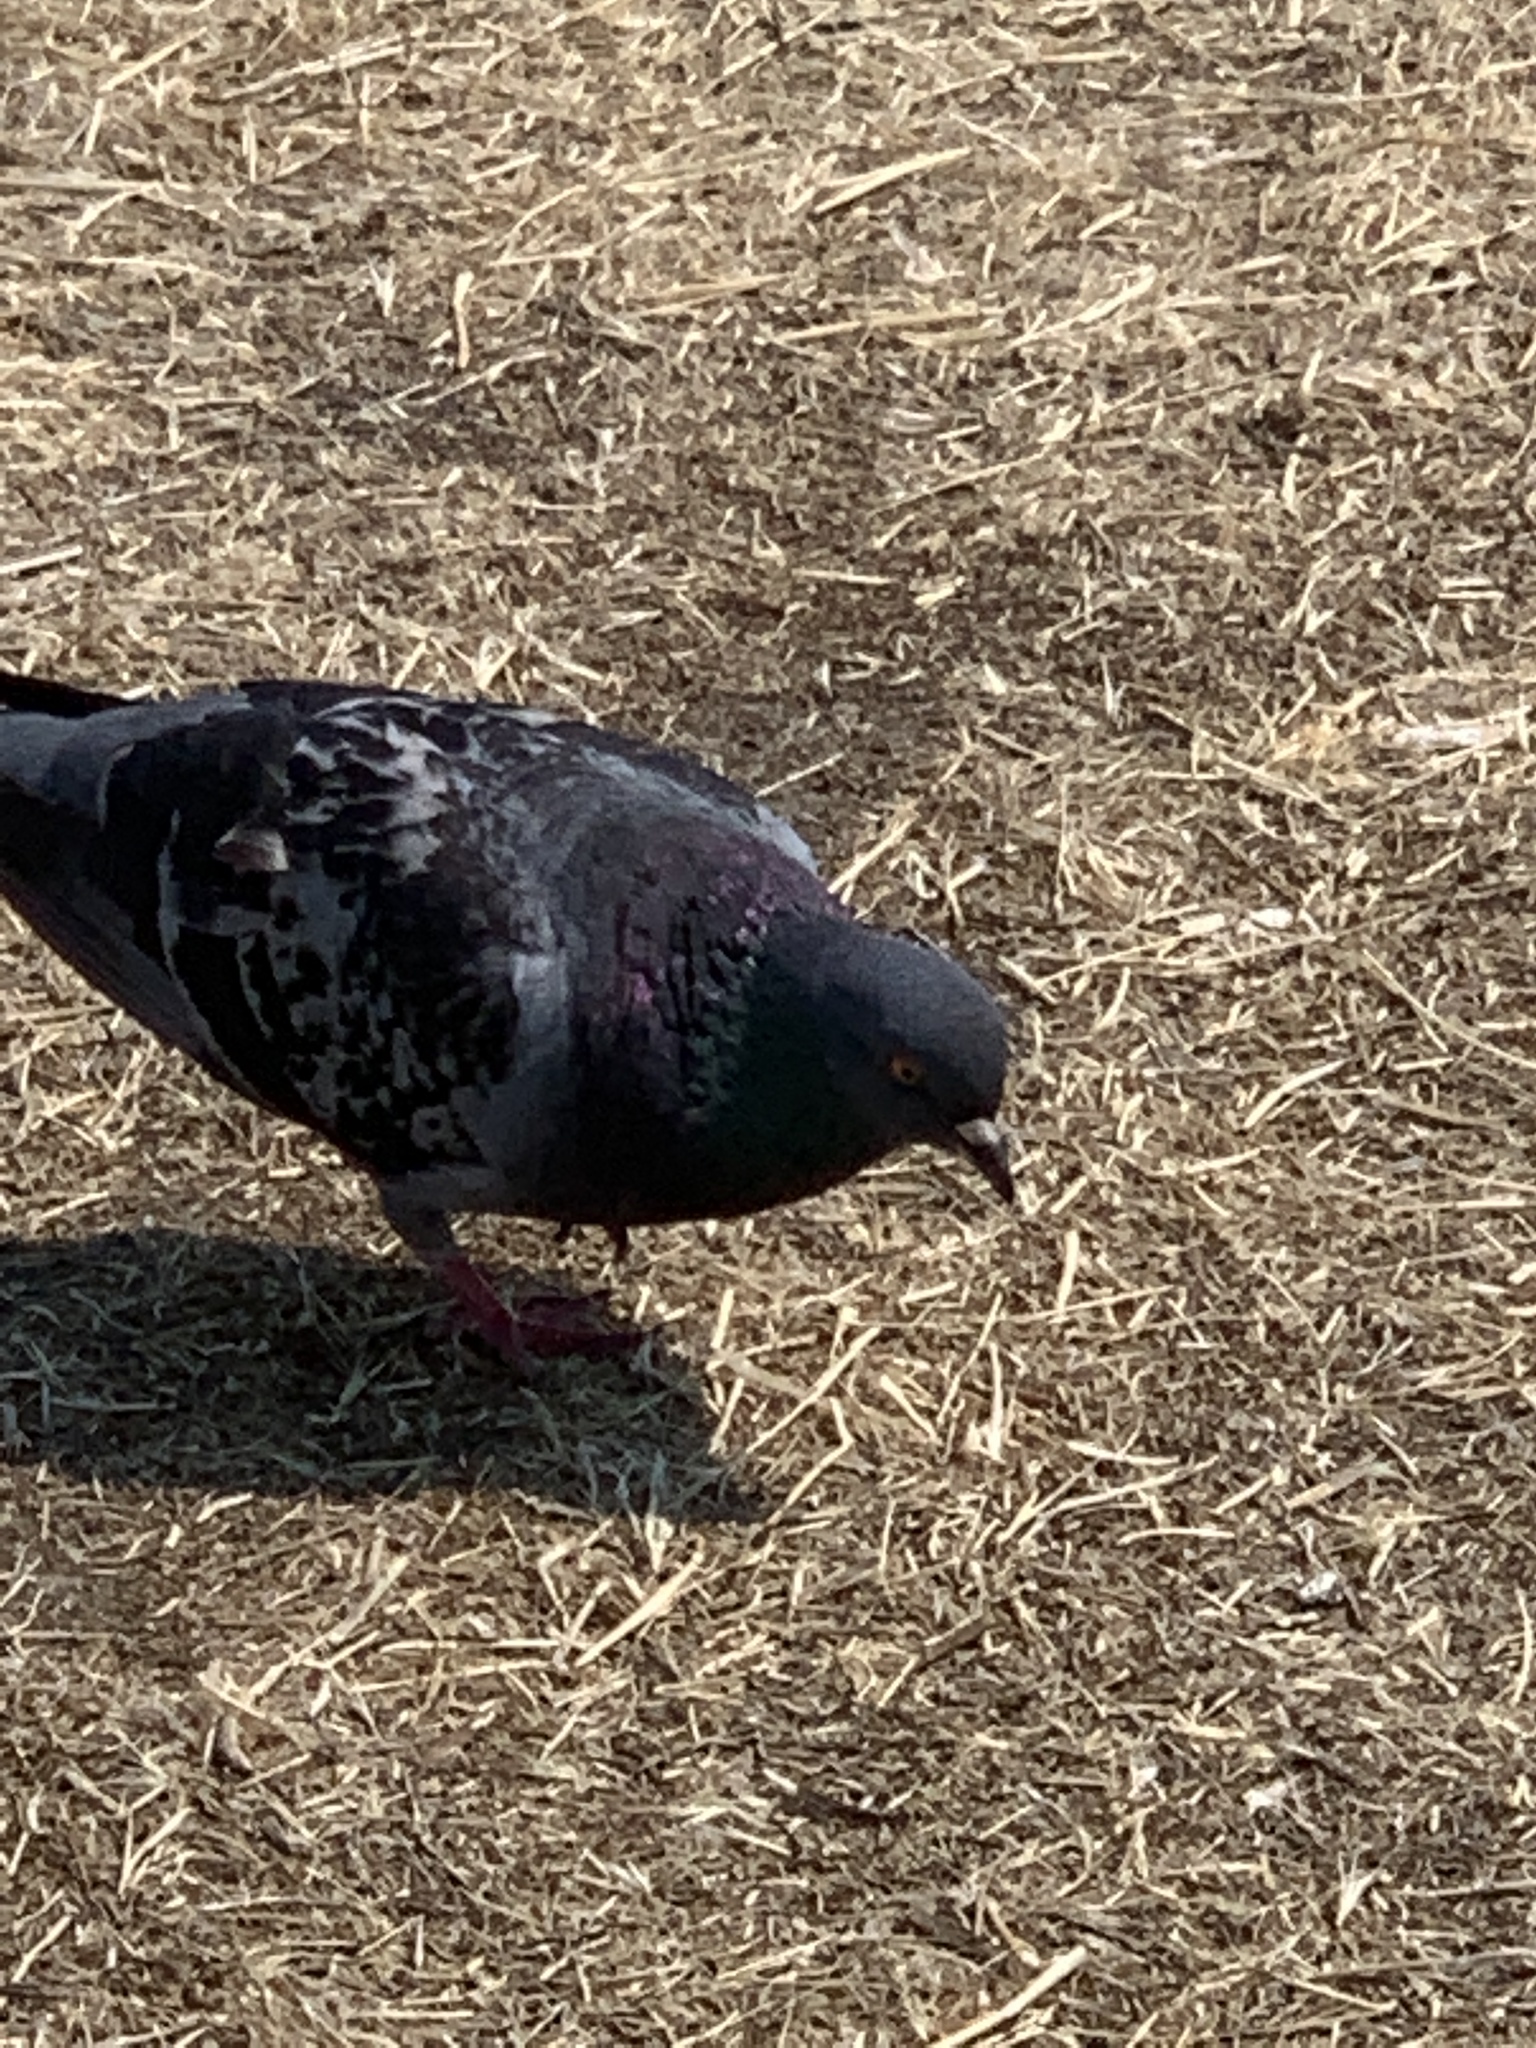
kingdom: Animalia
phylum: Chordata
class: Aves
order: Columbiformes
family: Columbidae
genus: Columba
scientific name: Columba livia
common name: Rock pigeon
